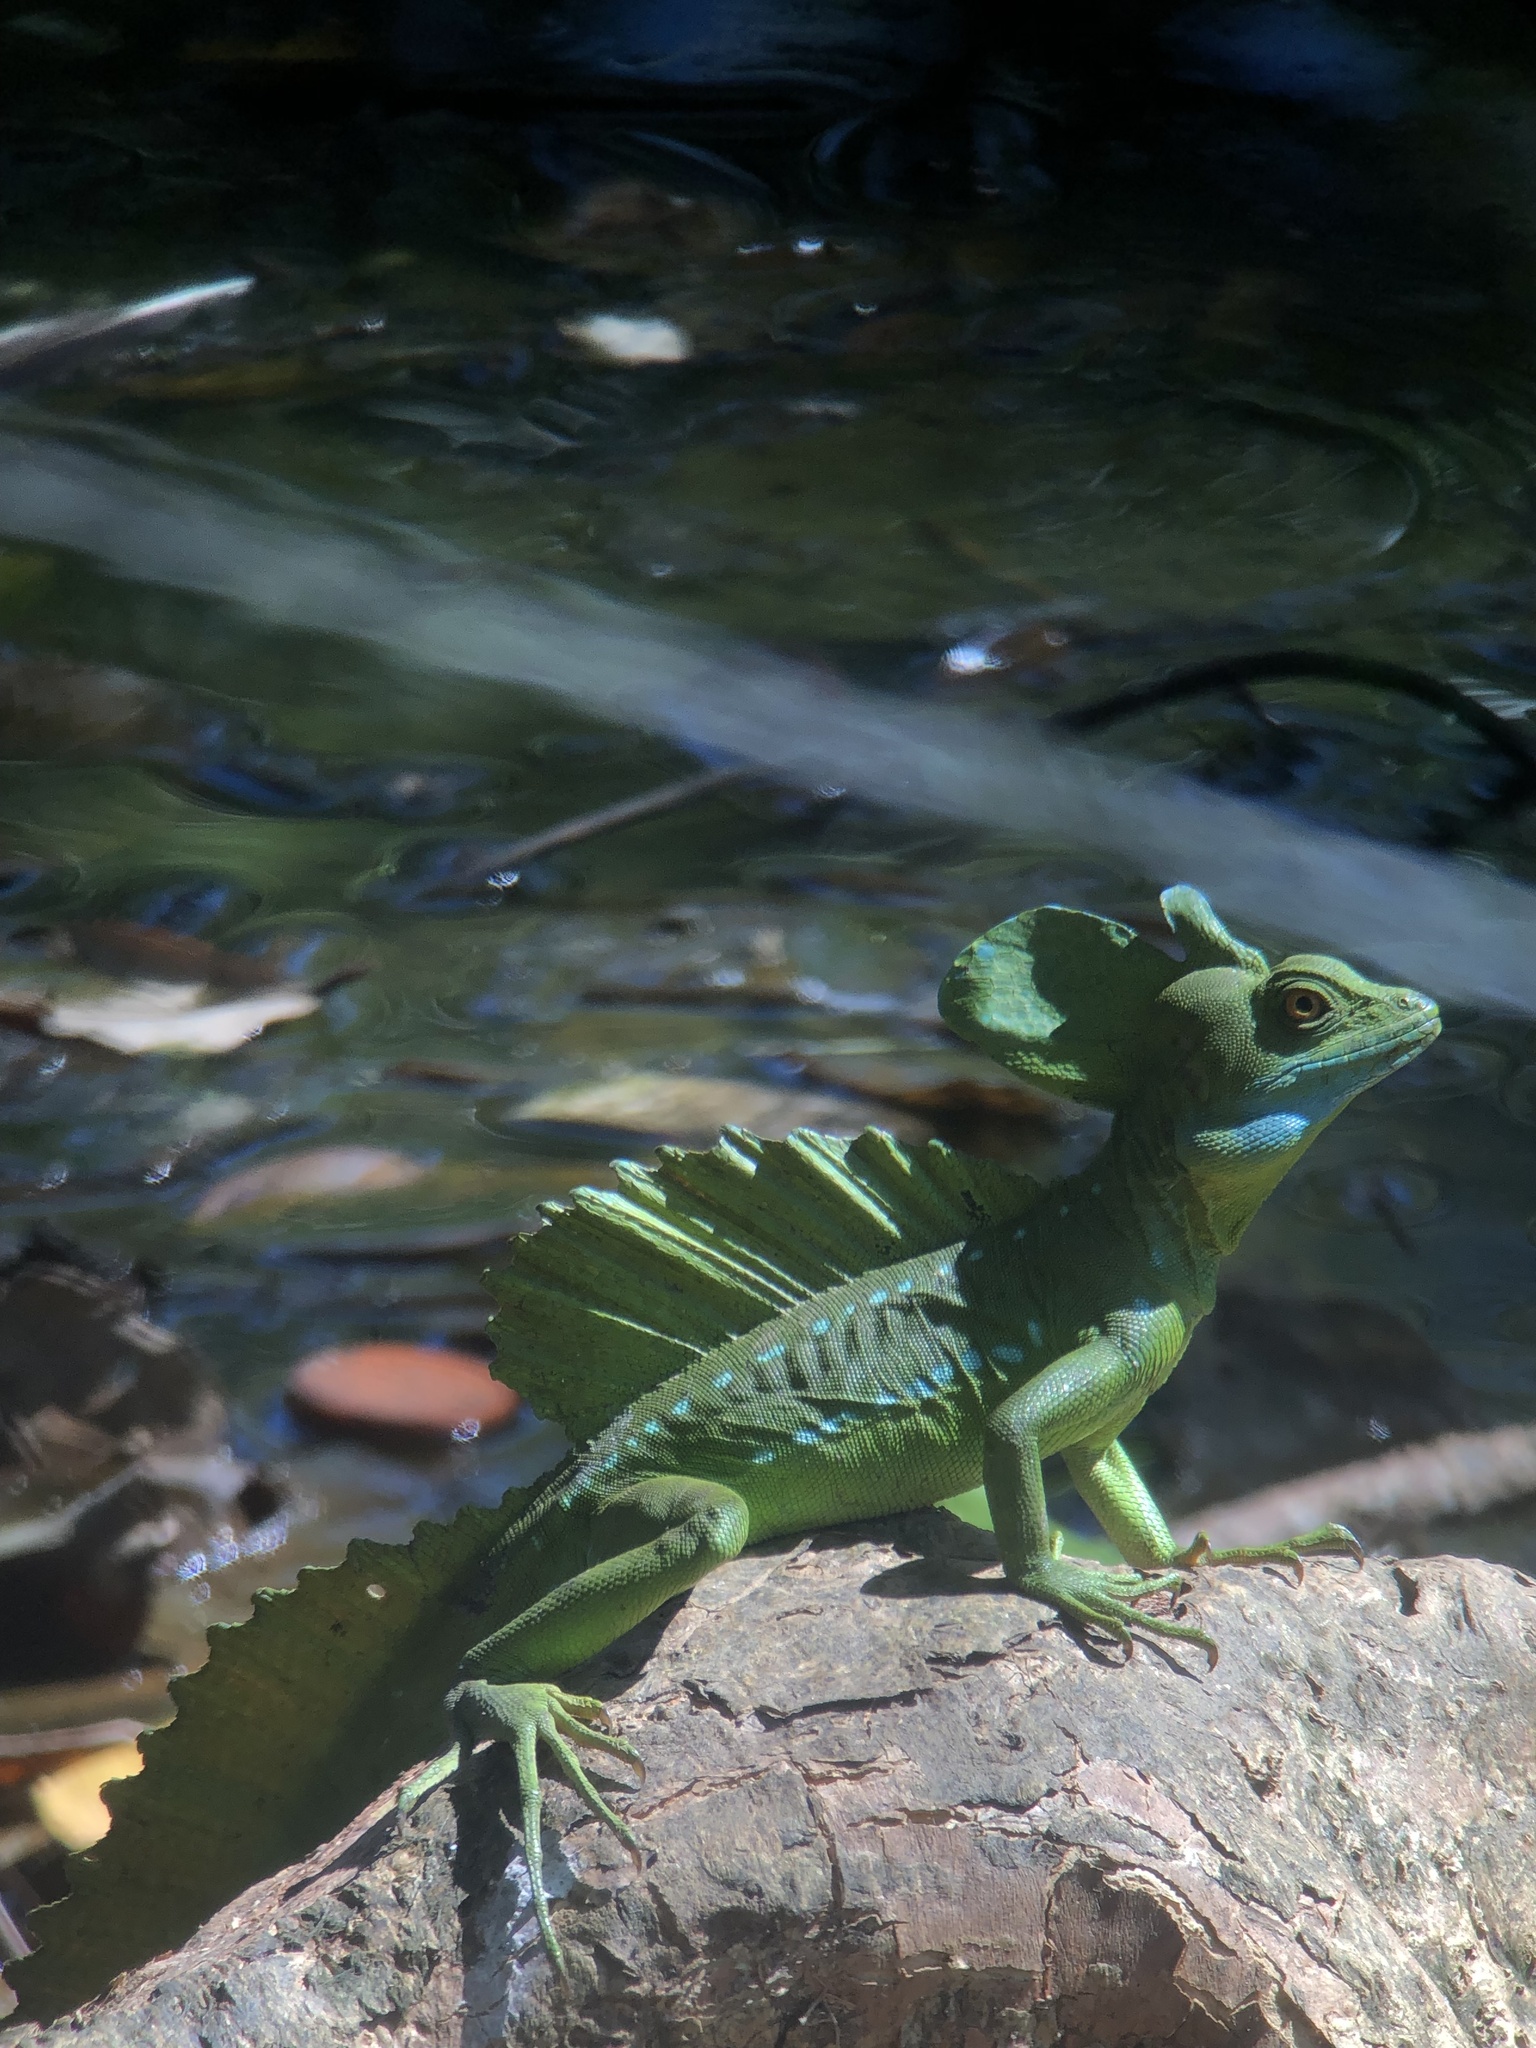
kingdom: Animalia
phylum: Chordata
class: Squamata
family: Corytophanidae
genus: Basiliscus
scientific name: Basiliscus plumifrons
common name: Green basilisk
